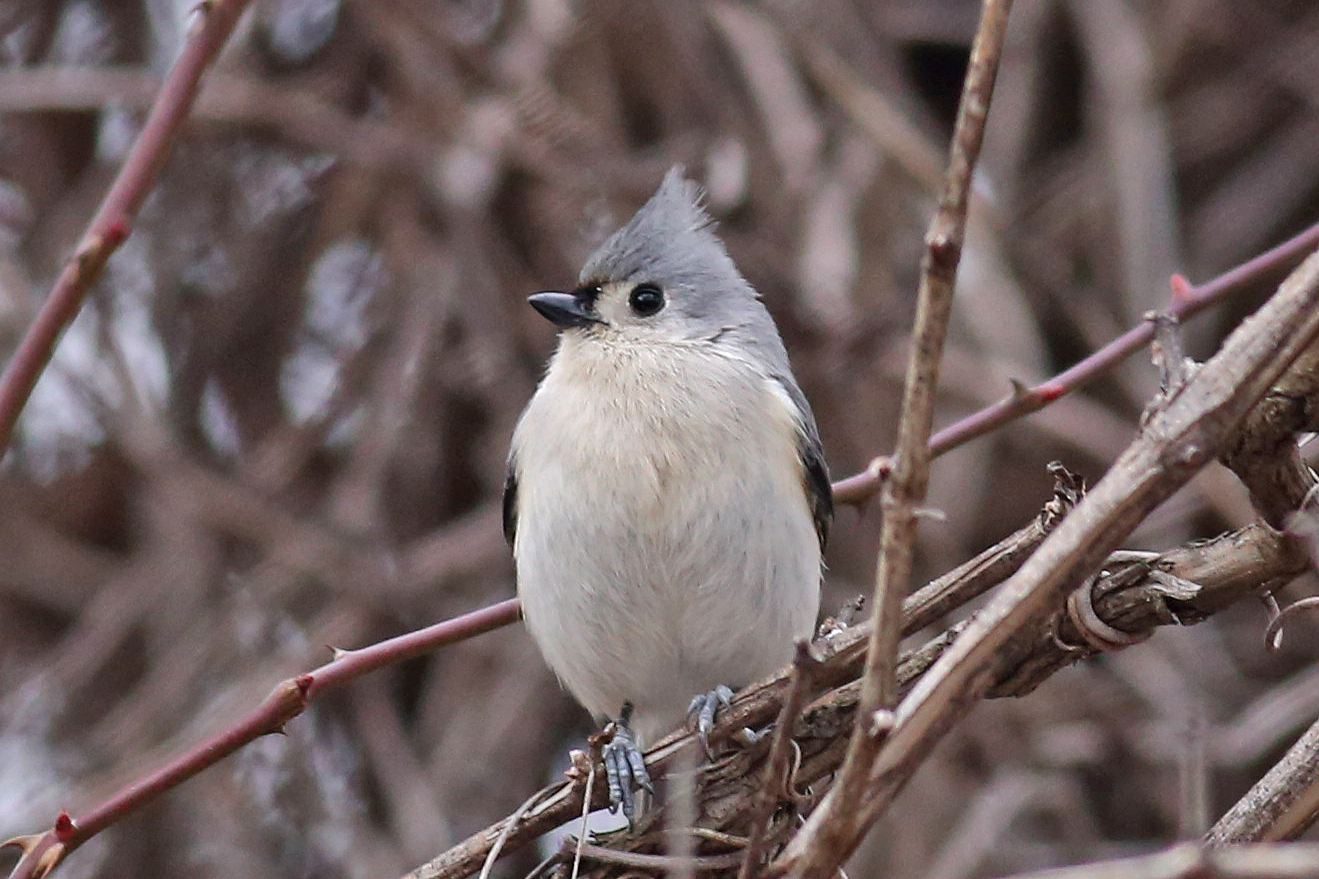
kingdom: Animalia
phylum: Chordata
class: Aves
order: Passeriformes
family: Paridae
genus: Baeolophus
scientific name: Baeolophus bicolor
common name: Tufted titmouse
